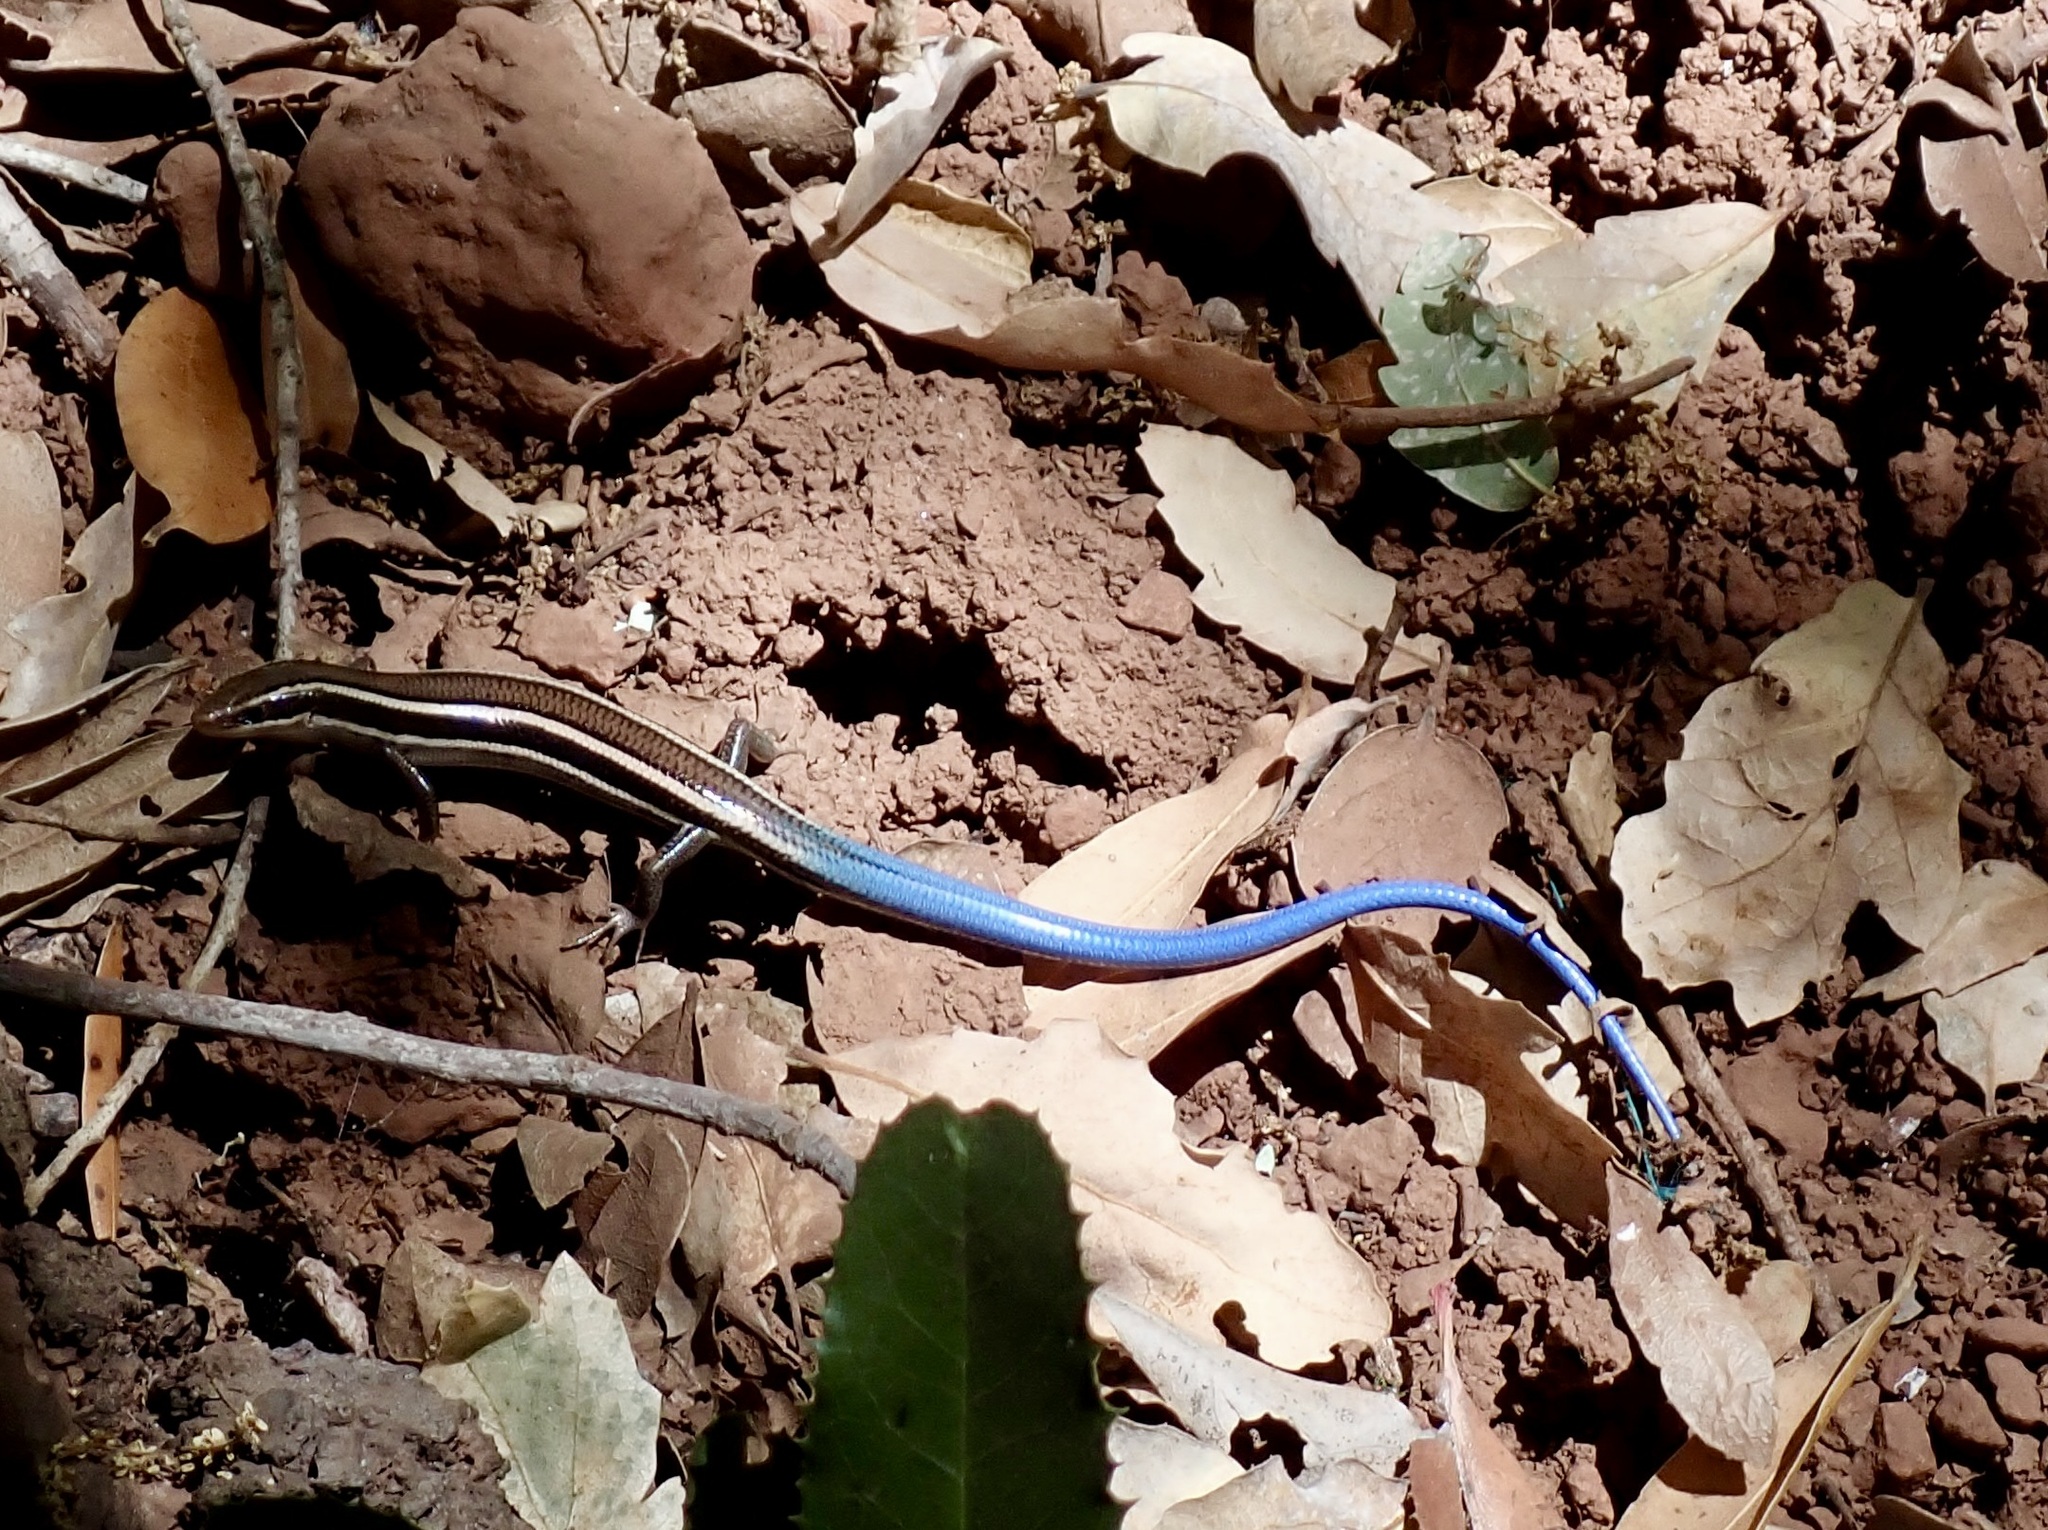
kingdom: Animalia
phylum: Chordata
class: Squamata
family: Scincidae
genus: Plestiodon
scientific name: Plestiodon skiltonianus
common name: Coronado island skink [interparietalis]
